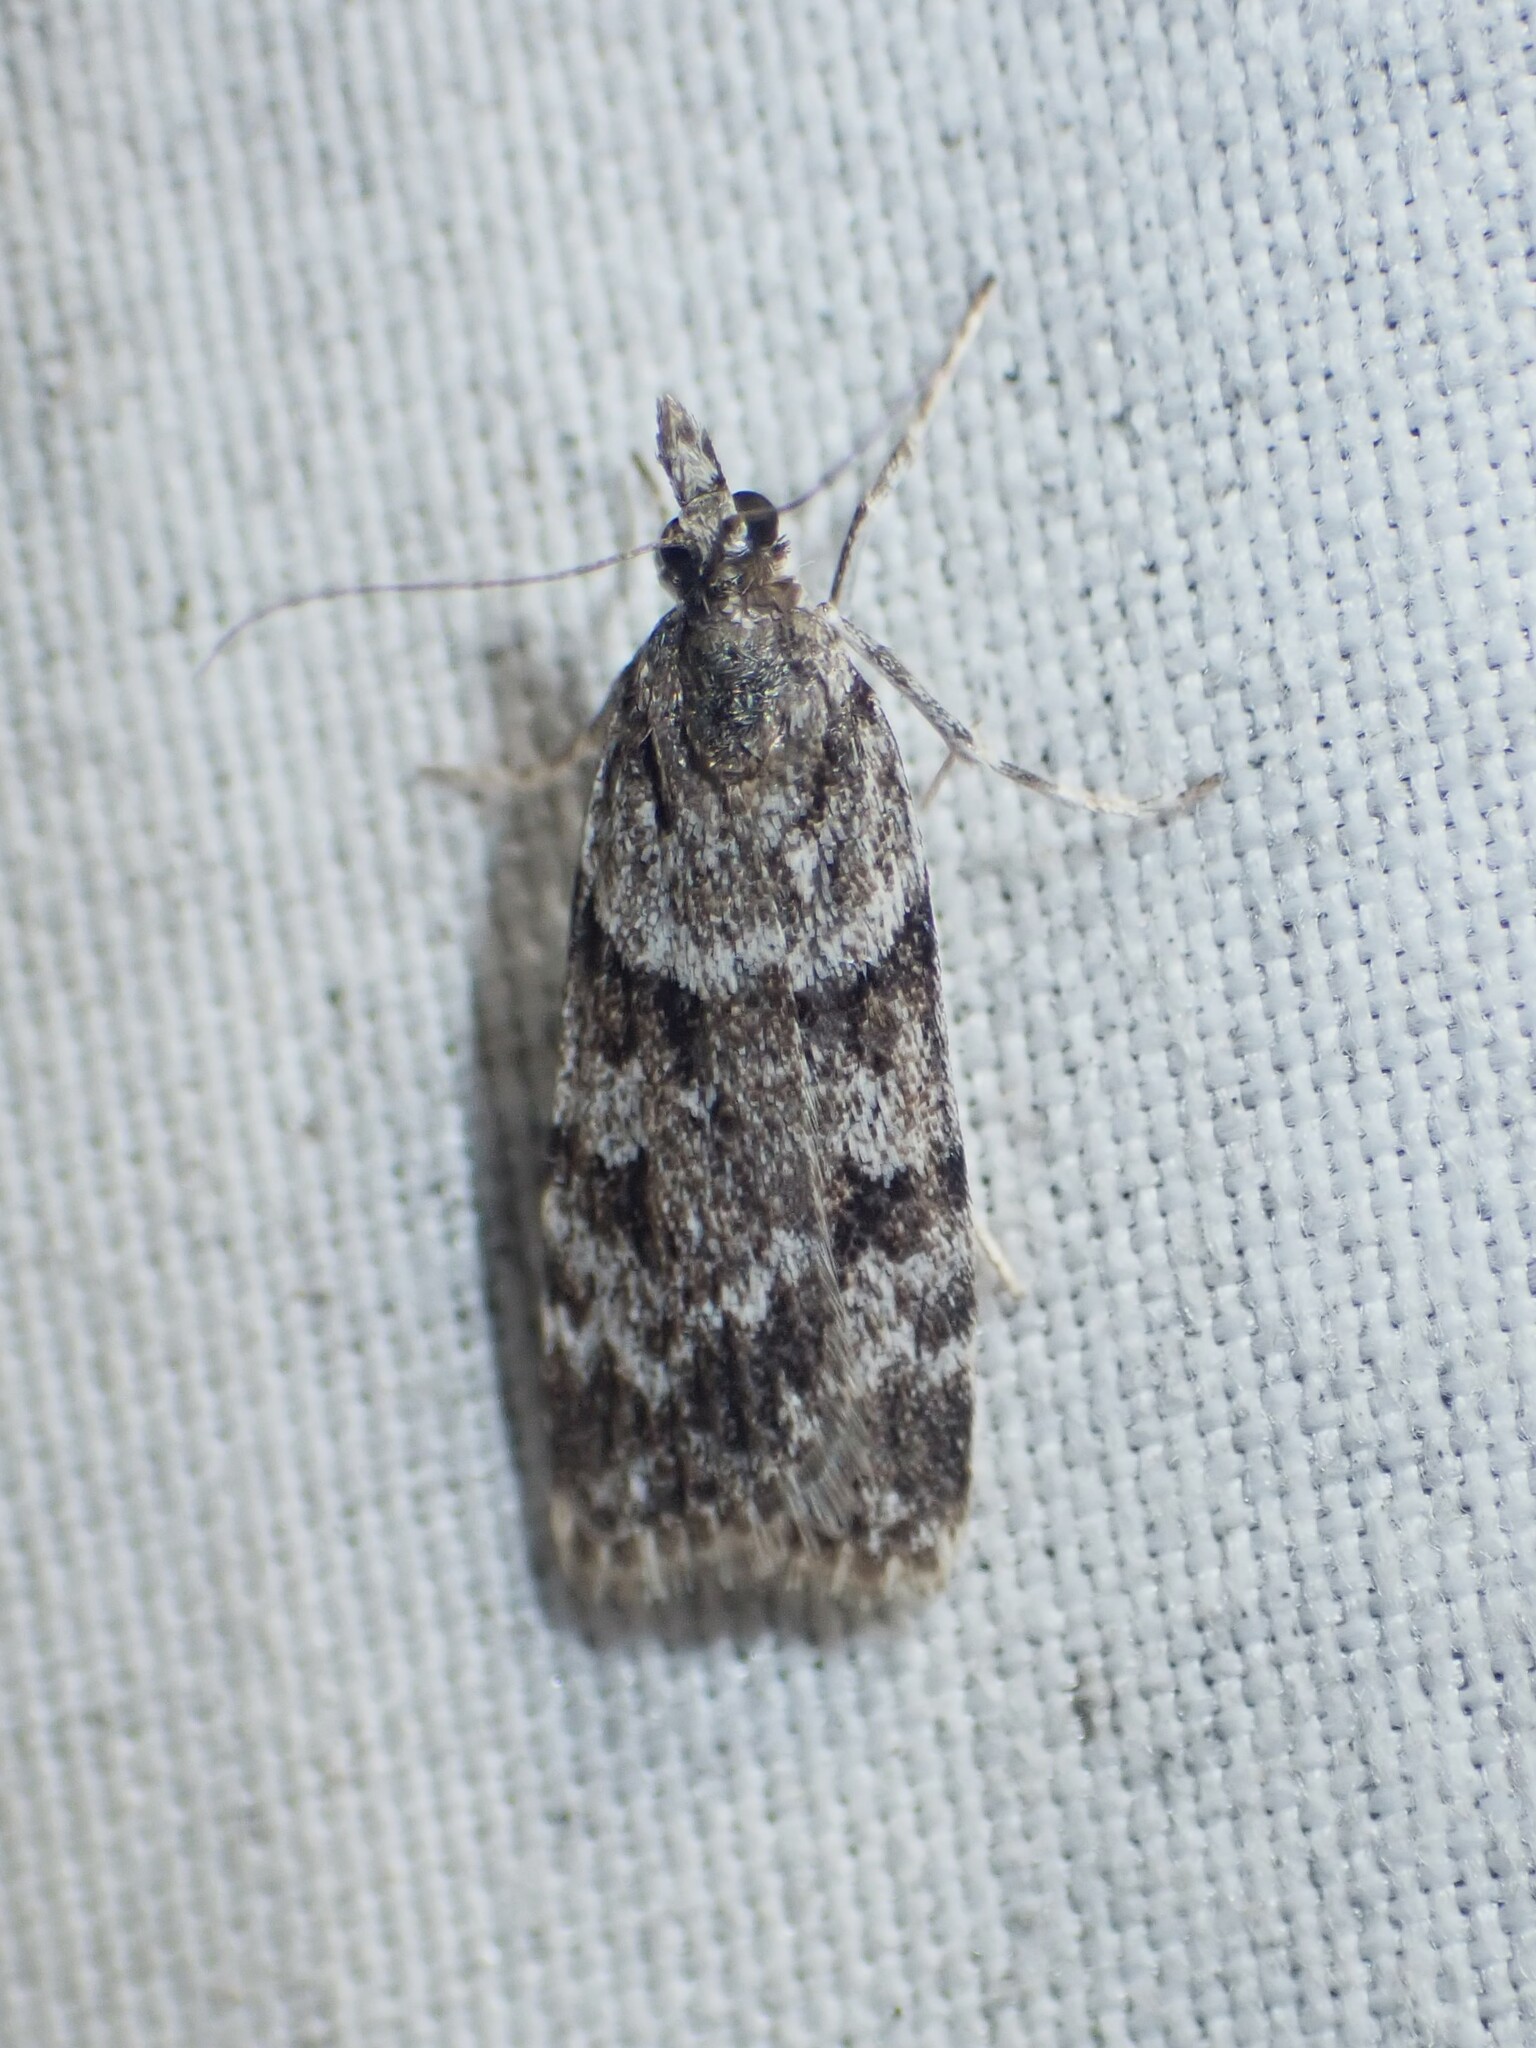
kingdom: Animalia
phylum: Arthropoda
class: Insecta
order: Lepidoptera
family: Crambidae
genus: Scoparia
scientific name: Scoparia biplagialis
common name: Double-striped scoparia moth
